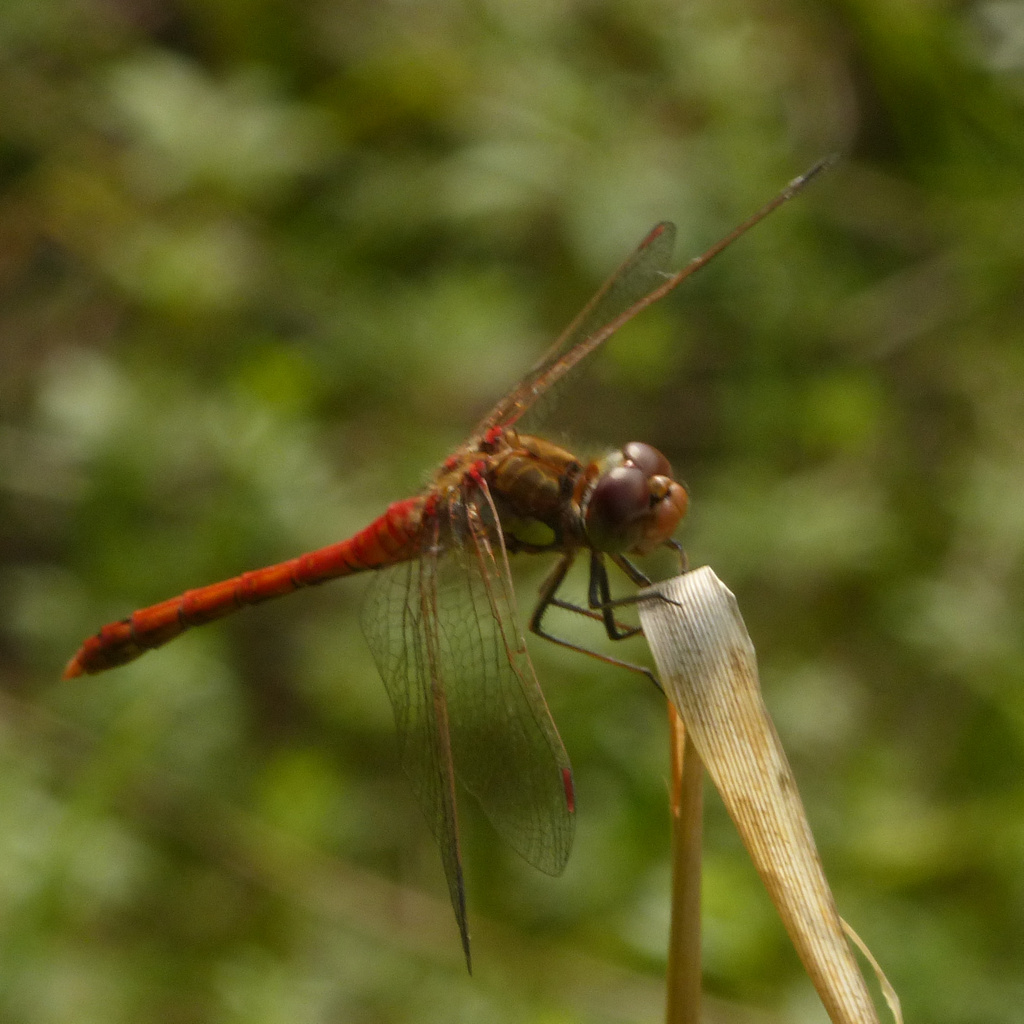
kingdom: Animalia
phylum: Arthropoda
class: Insecta
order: Odonata
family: Libellulidae
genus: Sympetrum
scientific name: Sympetrum striolatum
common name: Common darter
